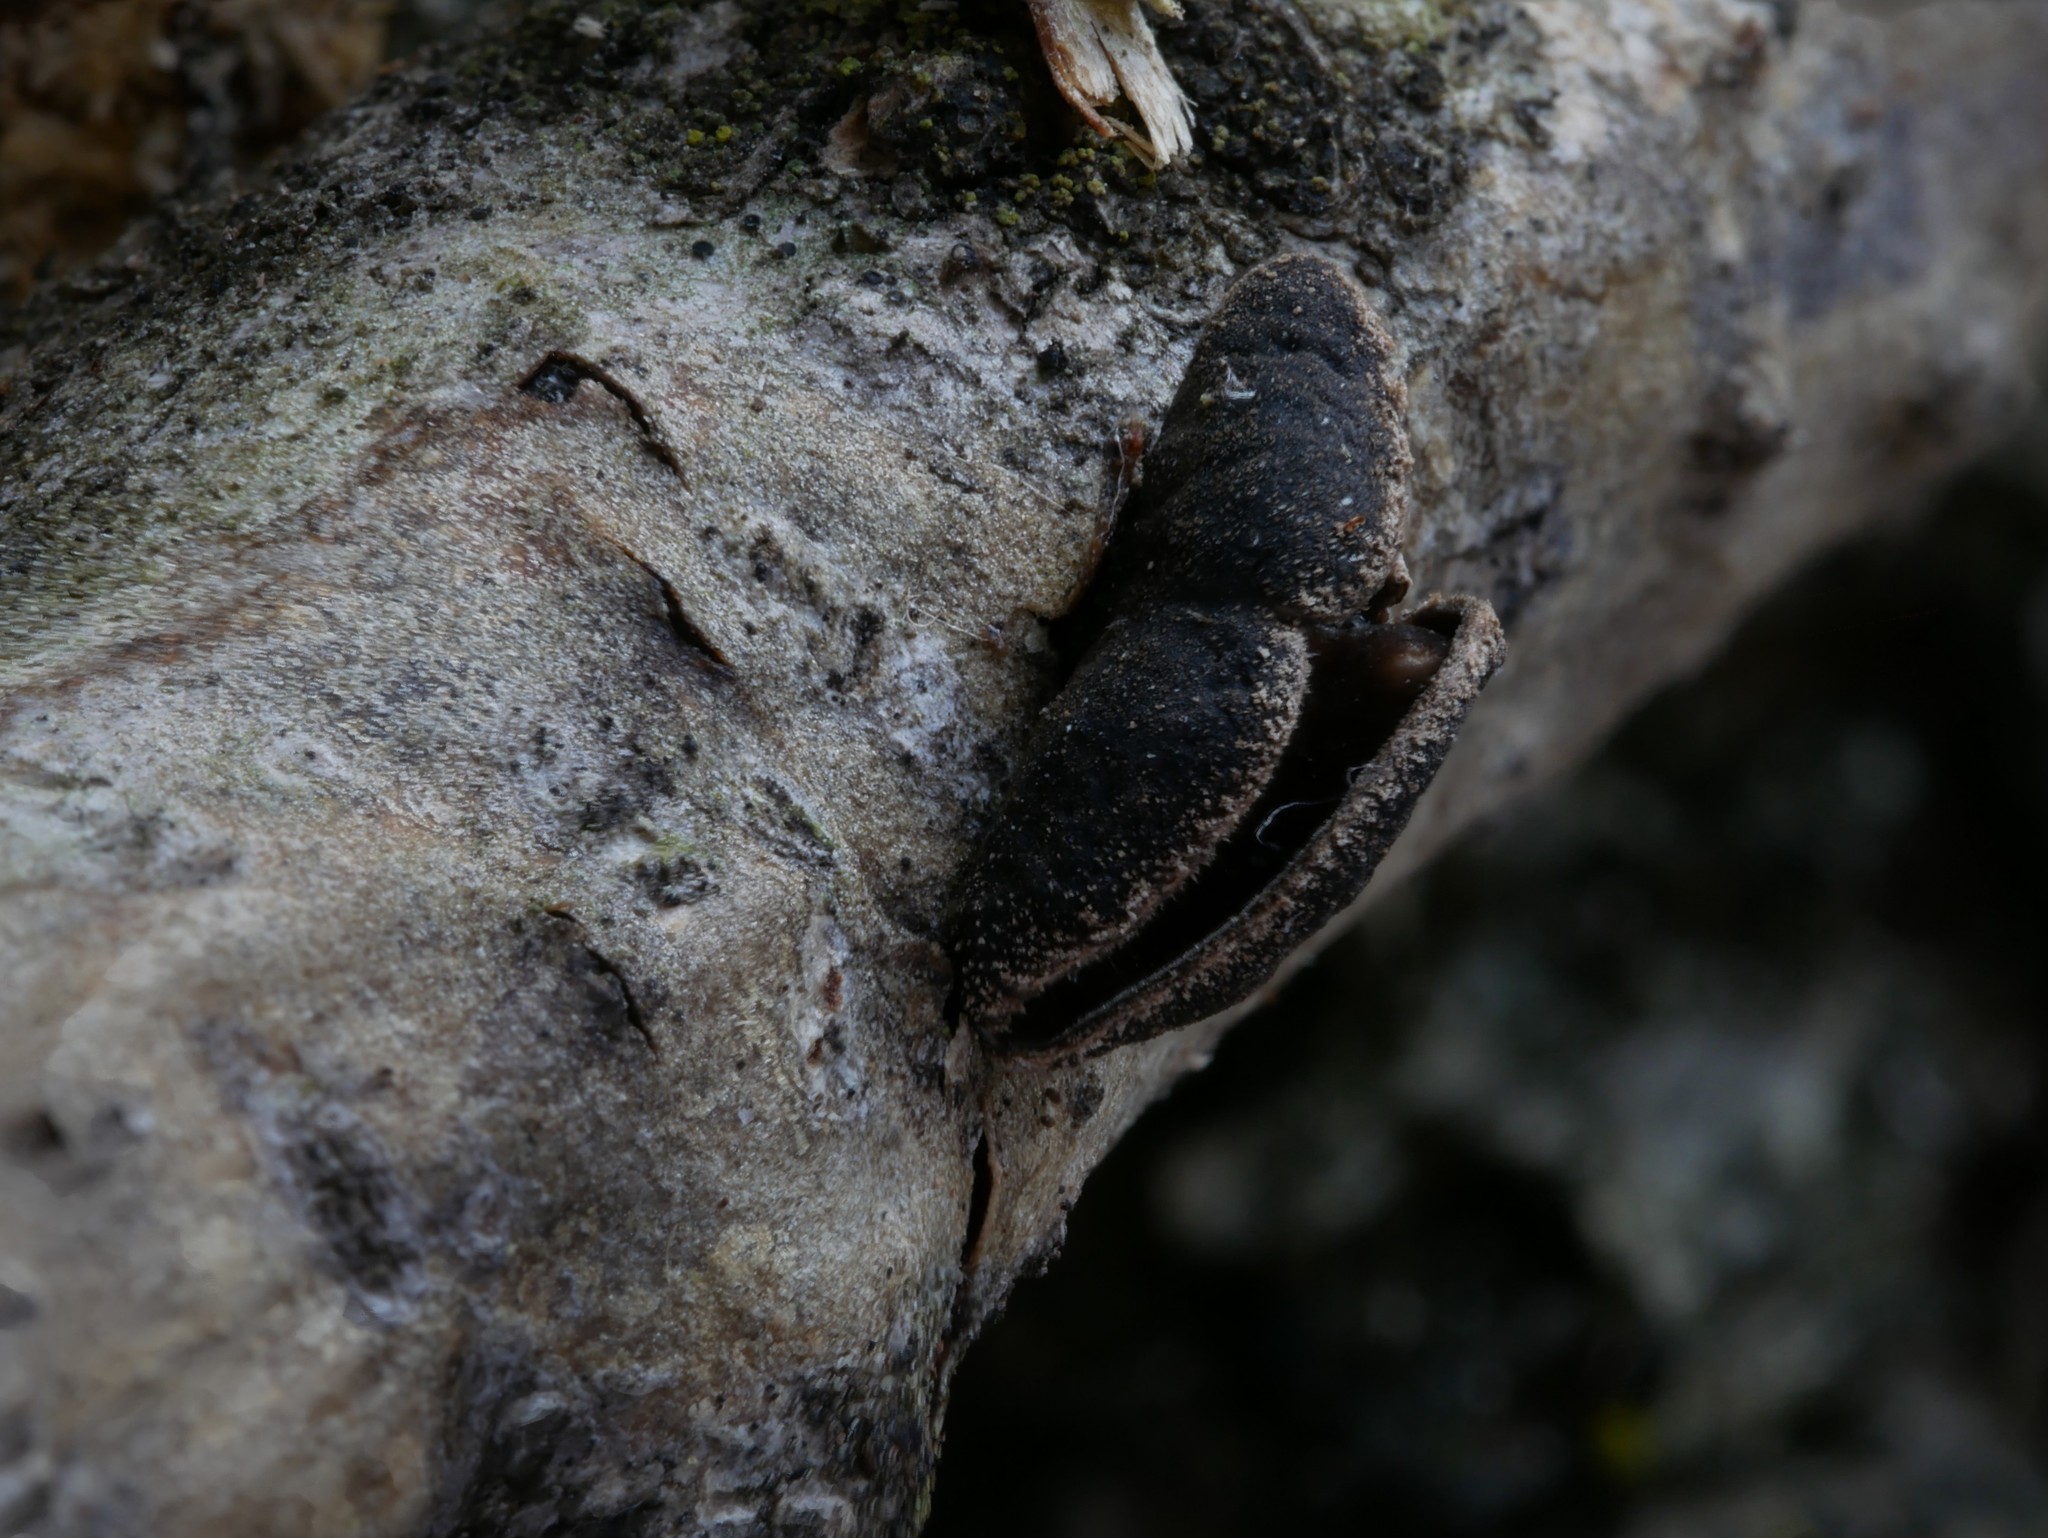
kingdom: Fungi
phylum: Ascomycota
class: Leotiomycetes
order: Helotiales
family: Cordieritidaceae
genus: Diplocarpa
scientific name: Diplocarpa irregularis
